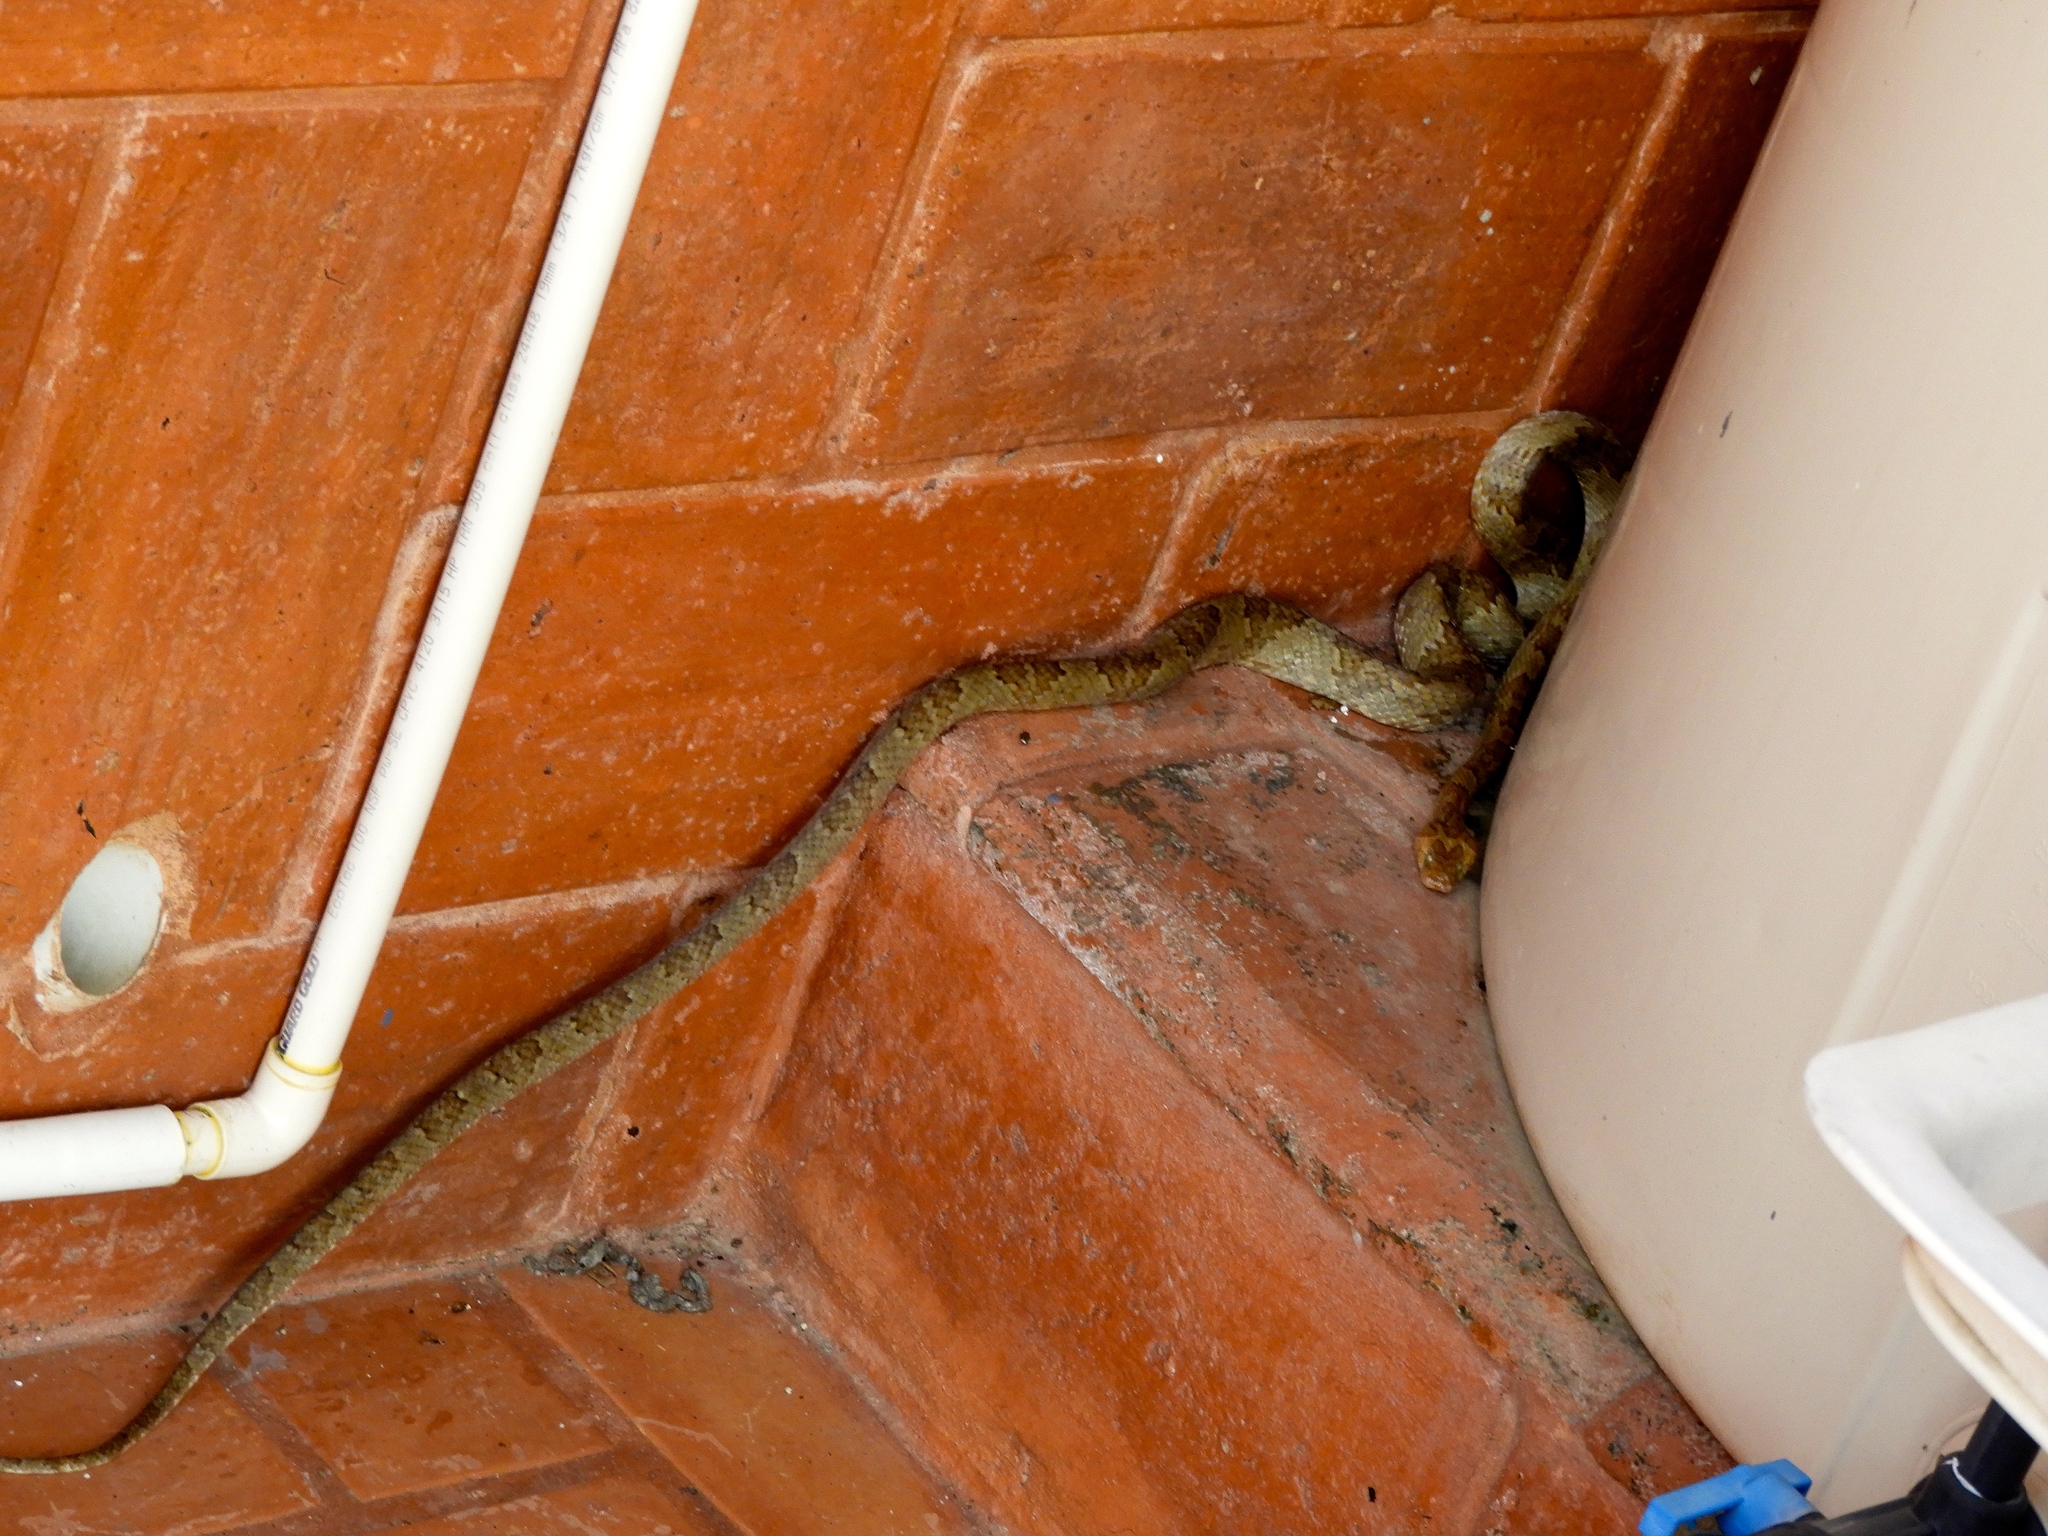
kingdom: Animalia
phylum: Chordata
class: Squamata
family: Colubridae
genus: Trimorphodon
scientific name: Trimorphodon paucimaculatus
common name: Sinaloan lyresnake
